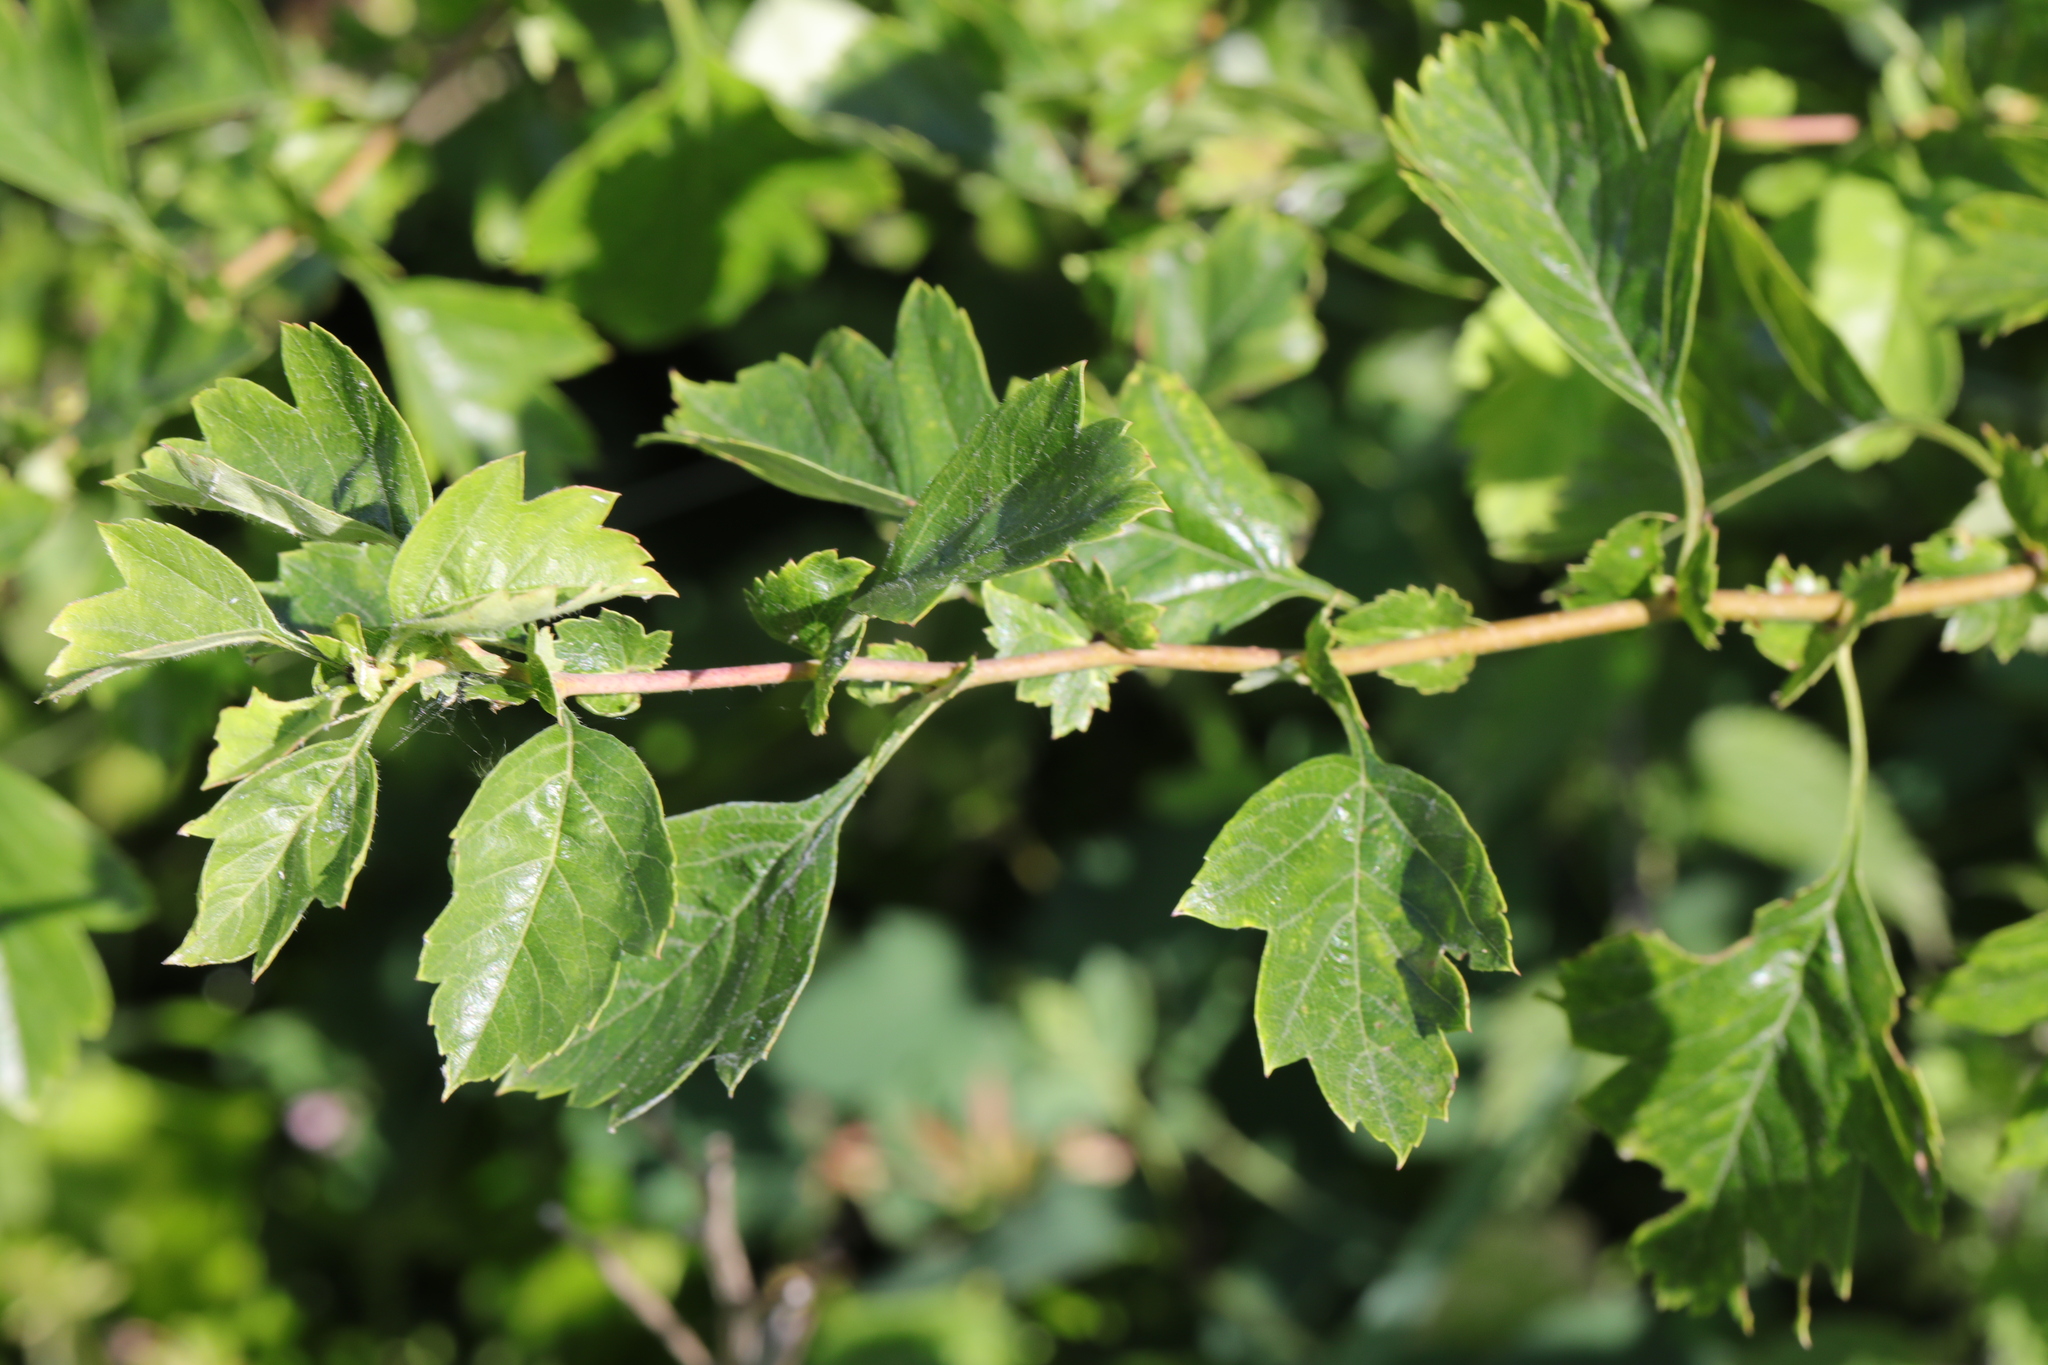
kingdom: Plantae
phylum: Tracheophyta
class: Magnoliopsida
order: Rosales
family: Rosaceae
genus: Crataegus
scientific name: Crataegus monogyna
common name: Hawthorn
